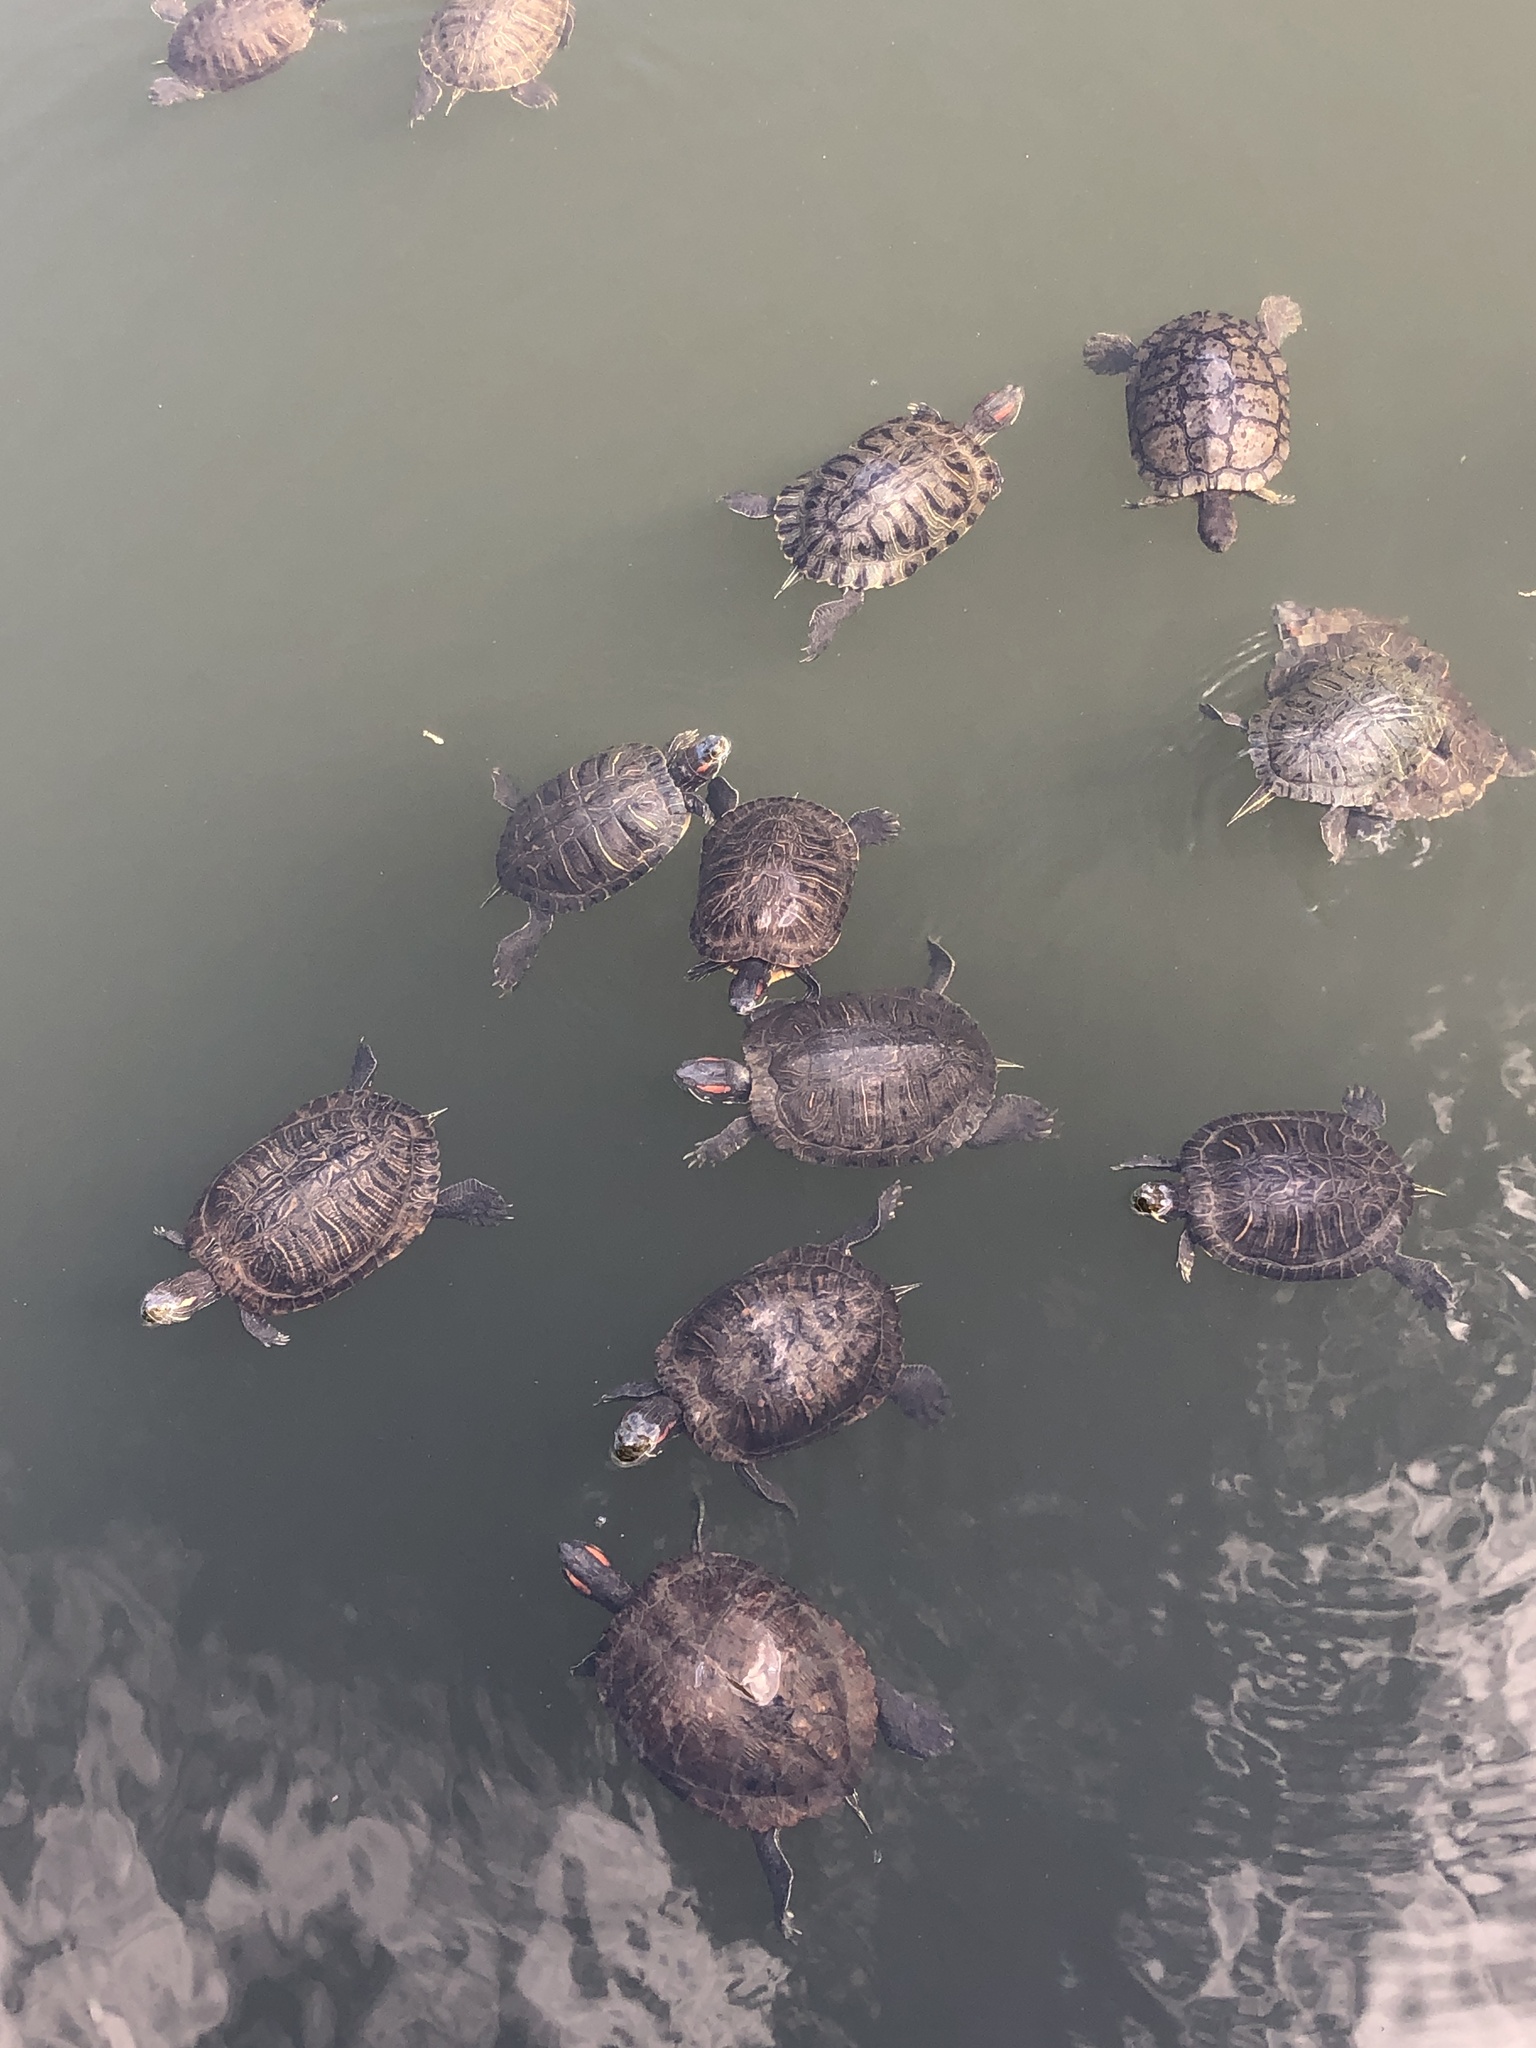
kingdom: Animalia
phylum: Chordata
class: Testudines
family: Emydidae
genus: Trachemys
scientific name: Trachemys scripta
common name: Slider
